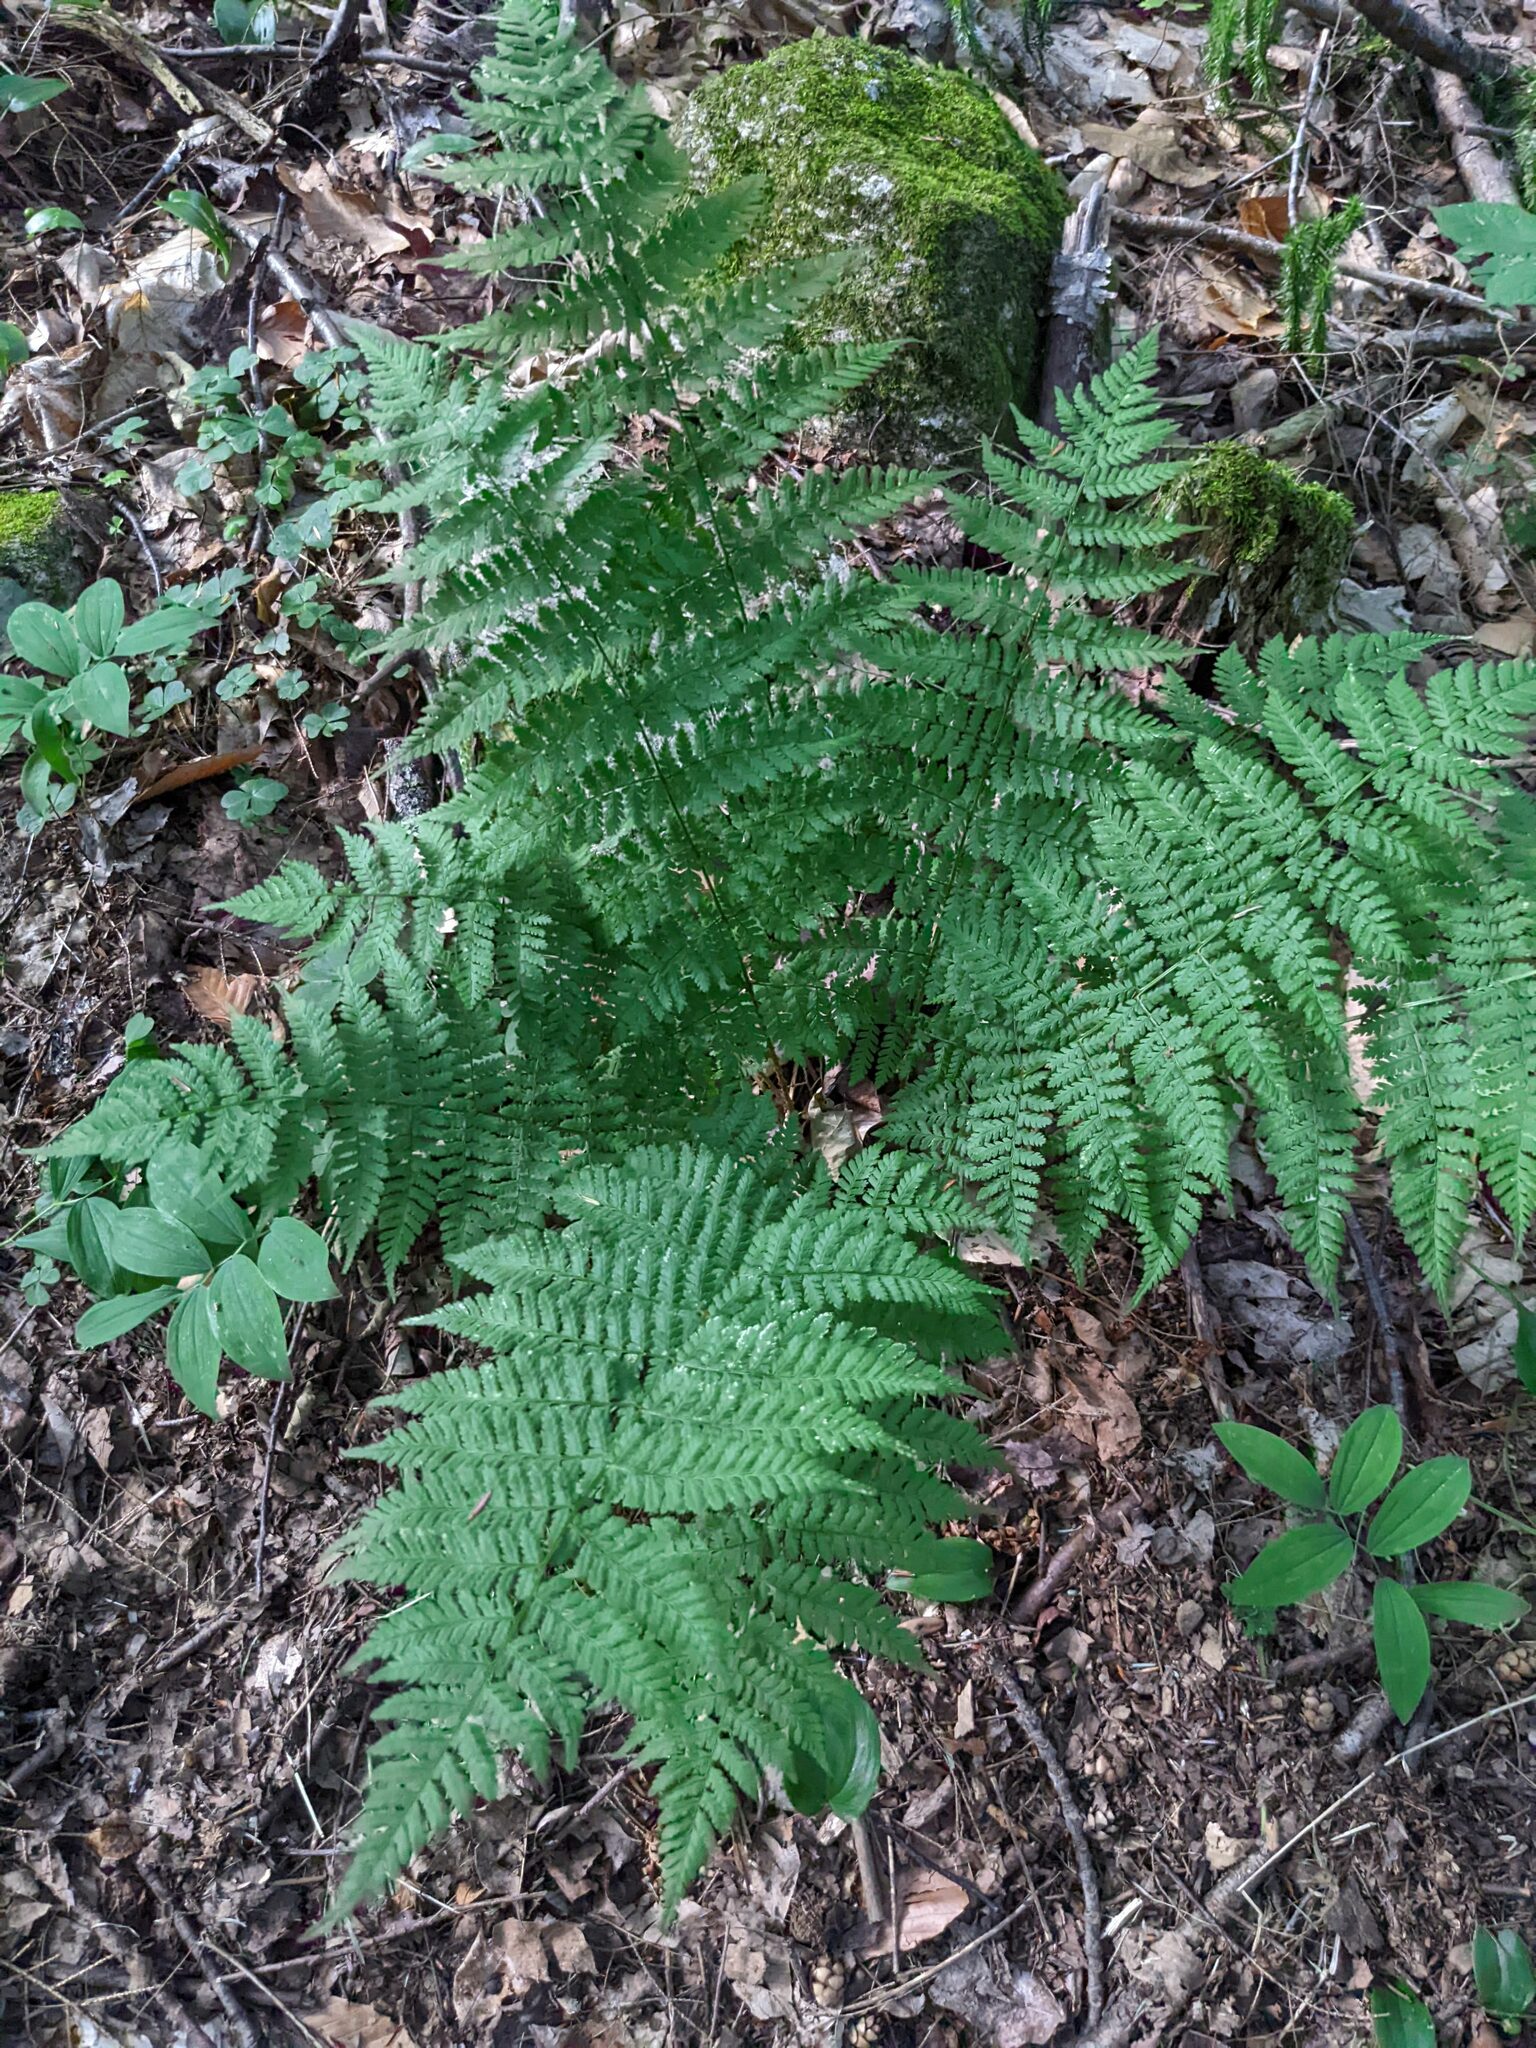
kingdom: Plantae
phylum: Tracheophyta
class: Polypodiopsida
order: Polypodiales
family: Dryopteridaceae
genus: Dryopteris
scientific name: Dryopteris intermedia
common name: Evergreen wood fern
